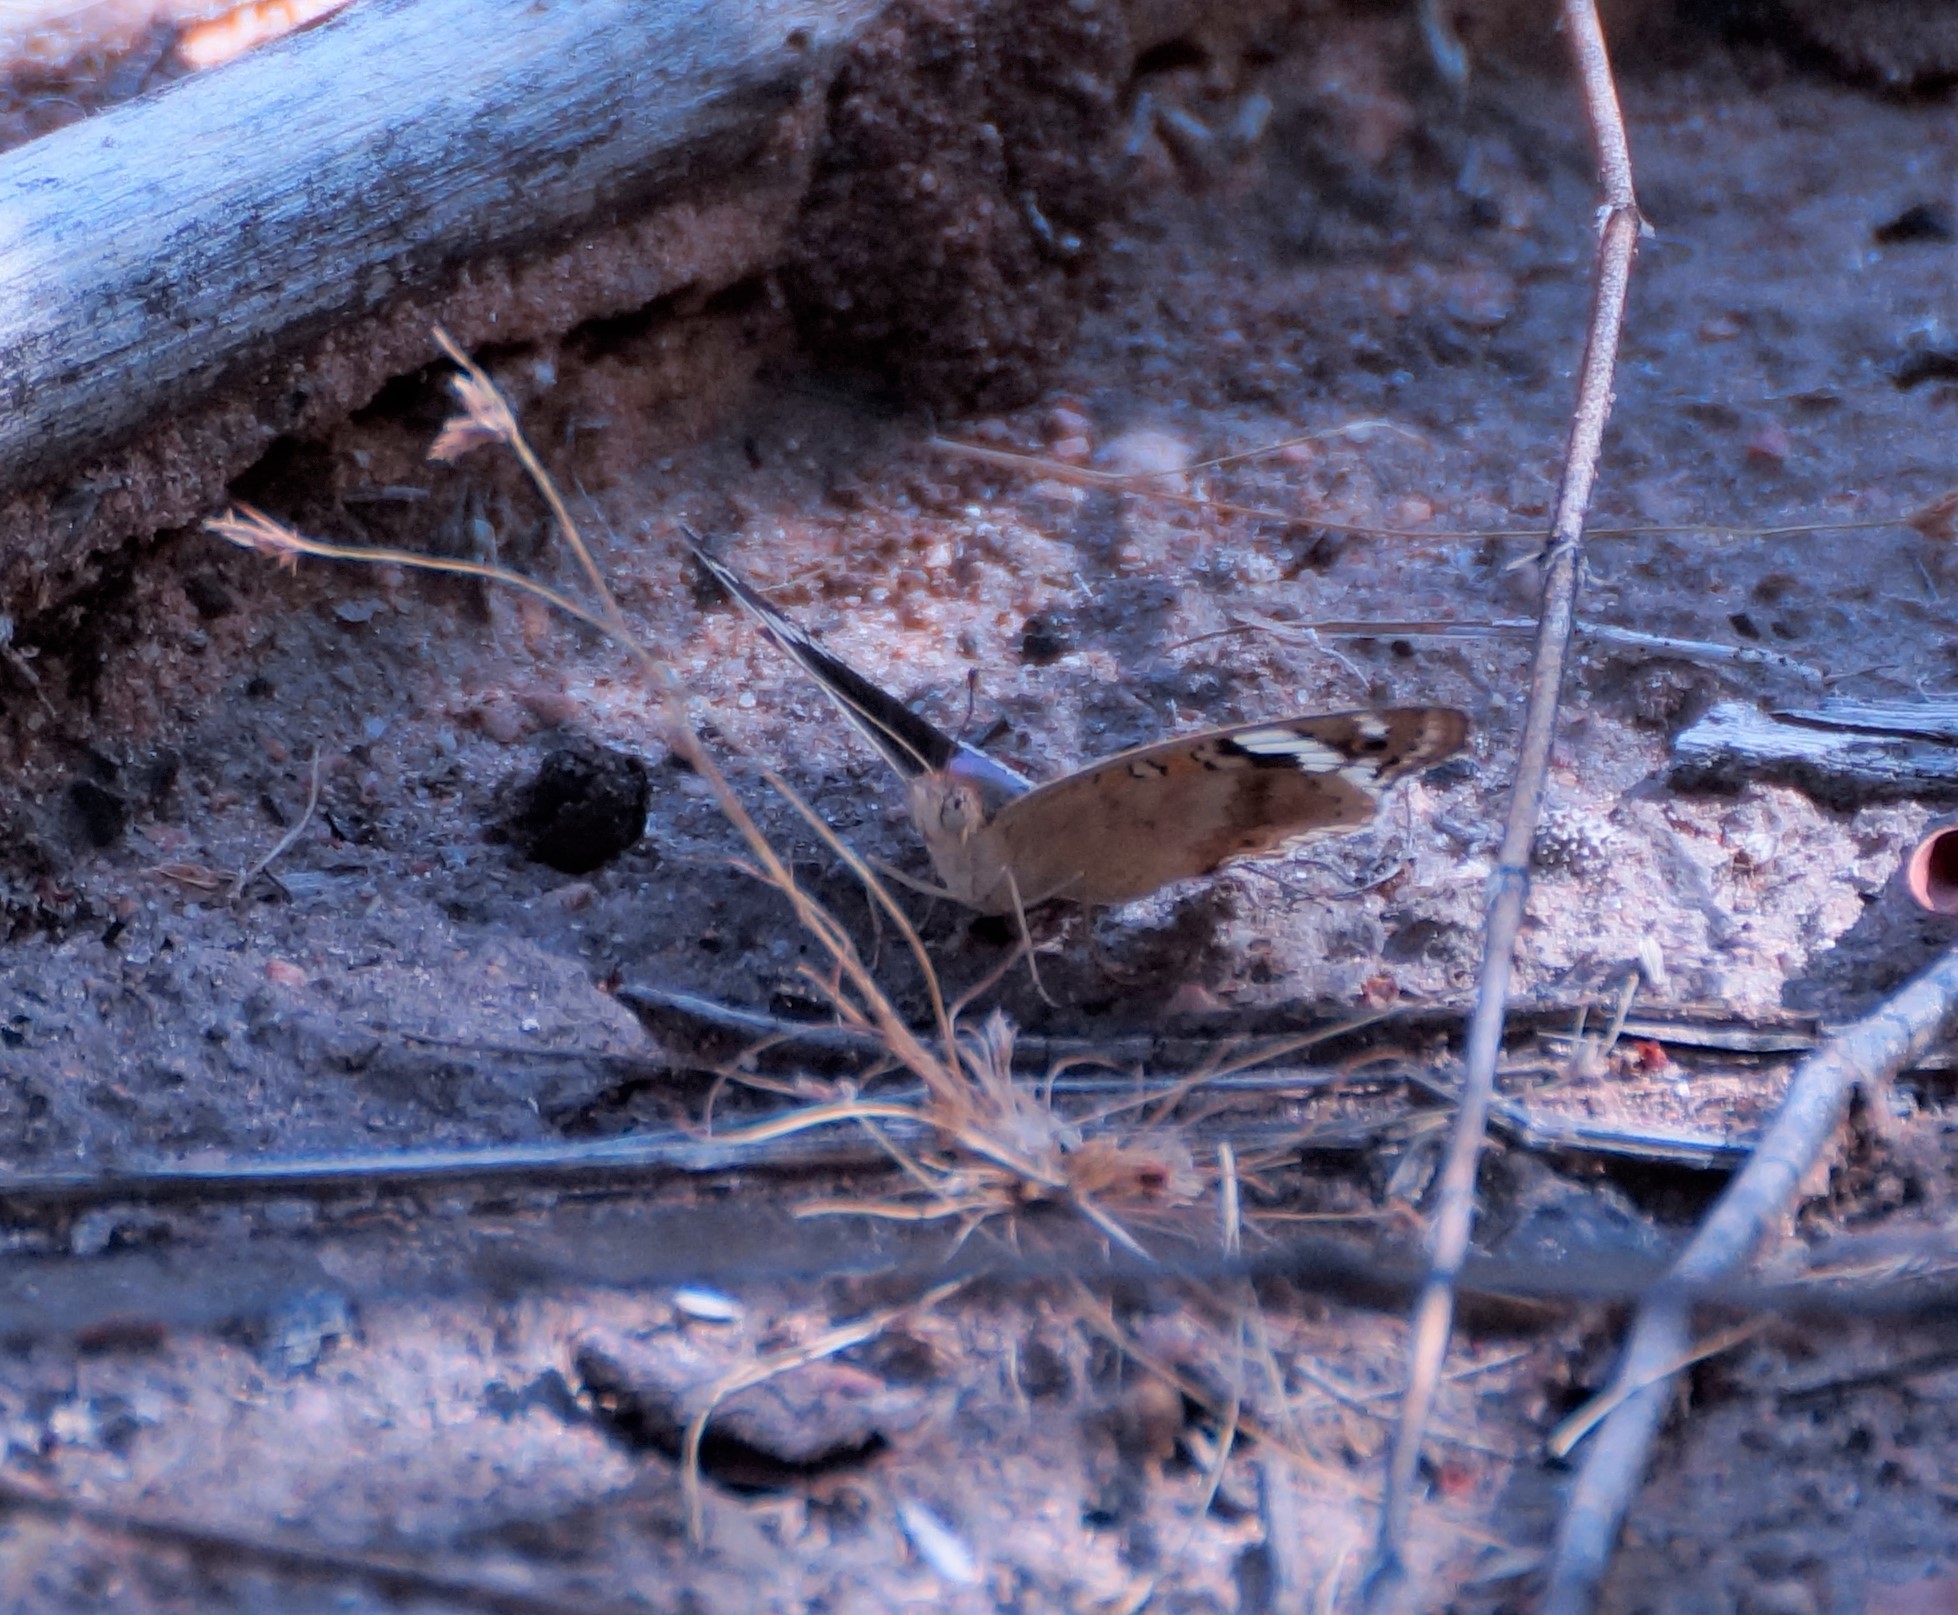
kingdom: Animalia
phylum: Arthropoda
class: Insecta
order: Lepidoptera
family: Nymphalidae
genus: Junonia
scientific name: Junonia orithya
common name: Blue pansy
